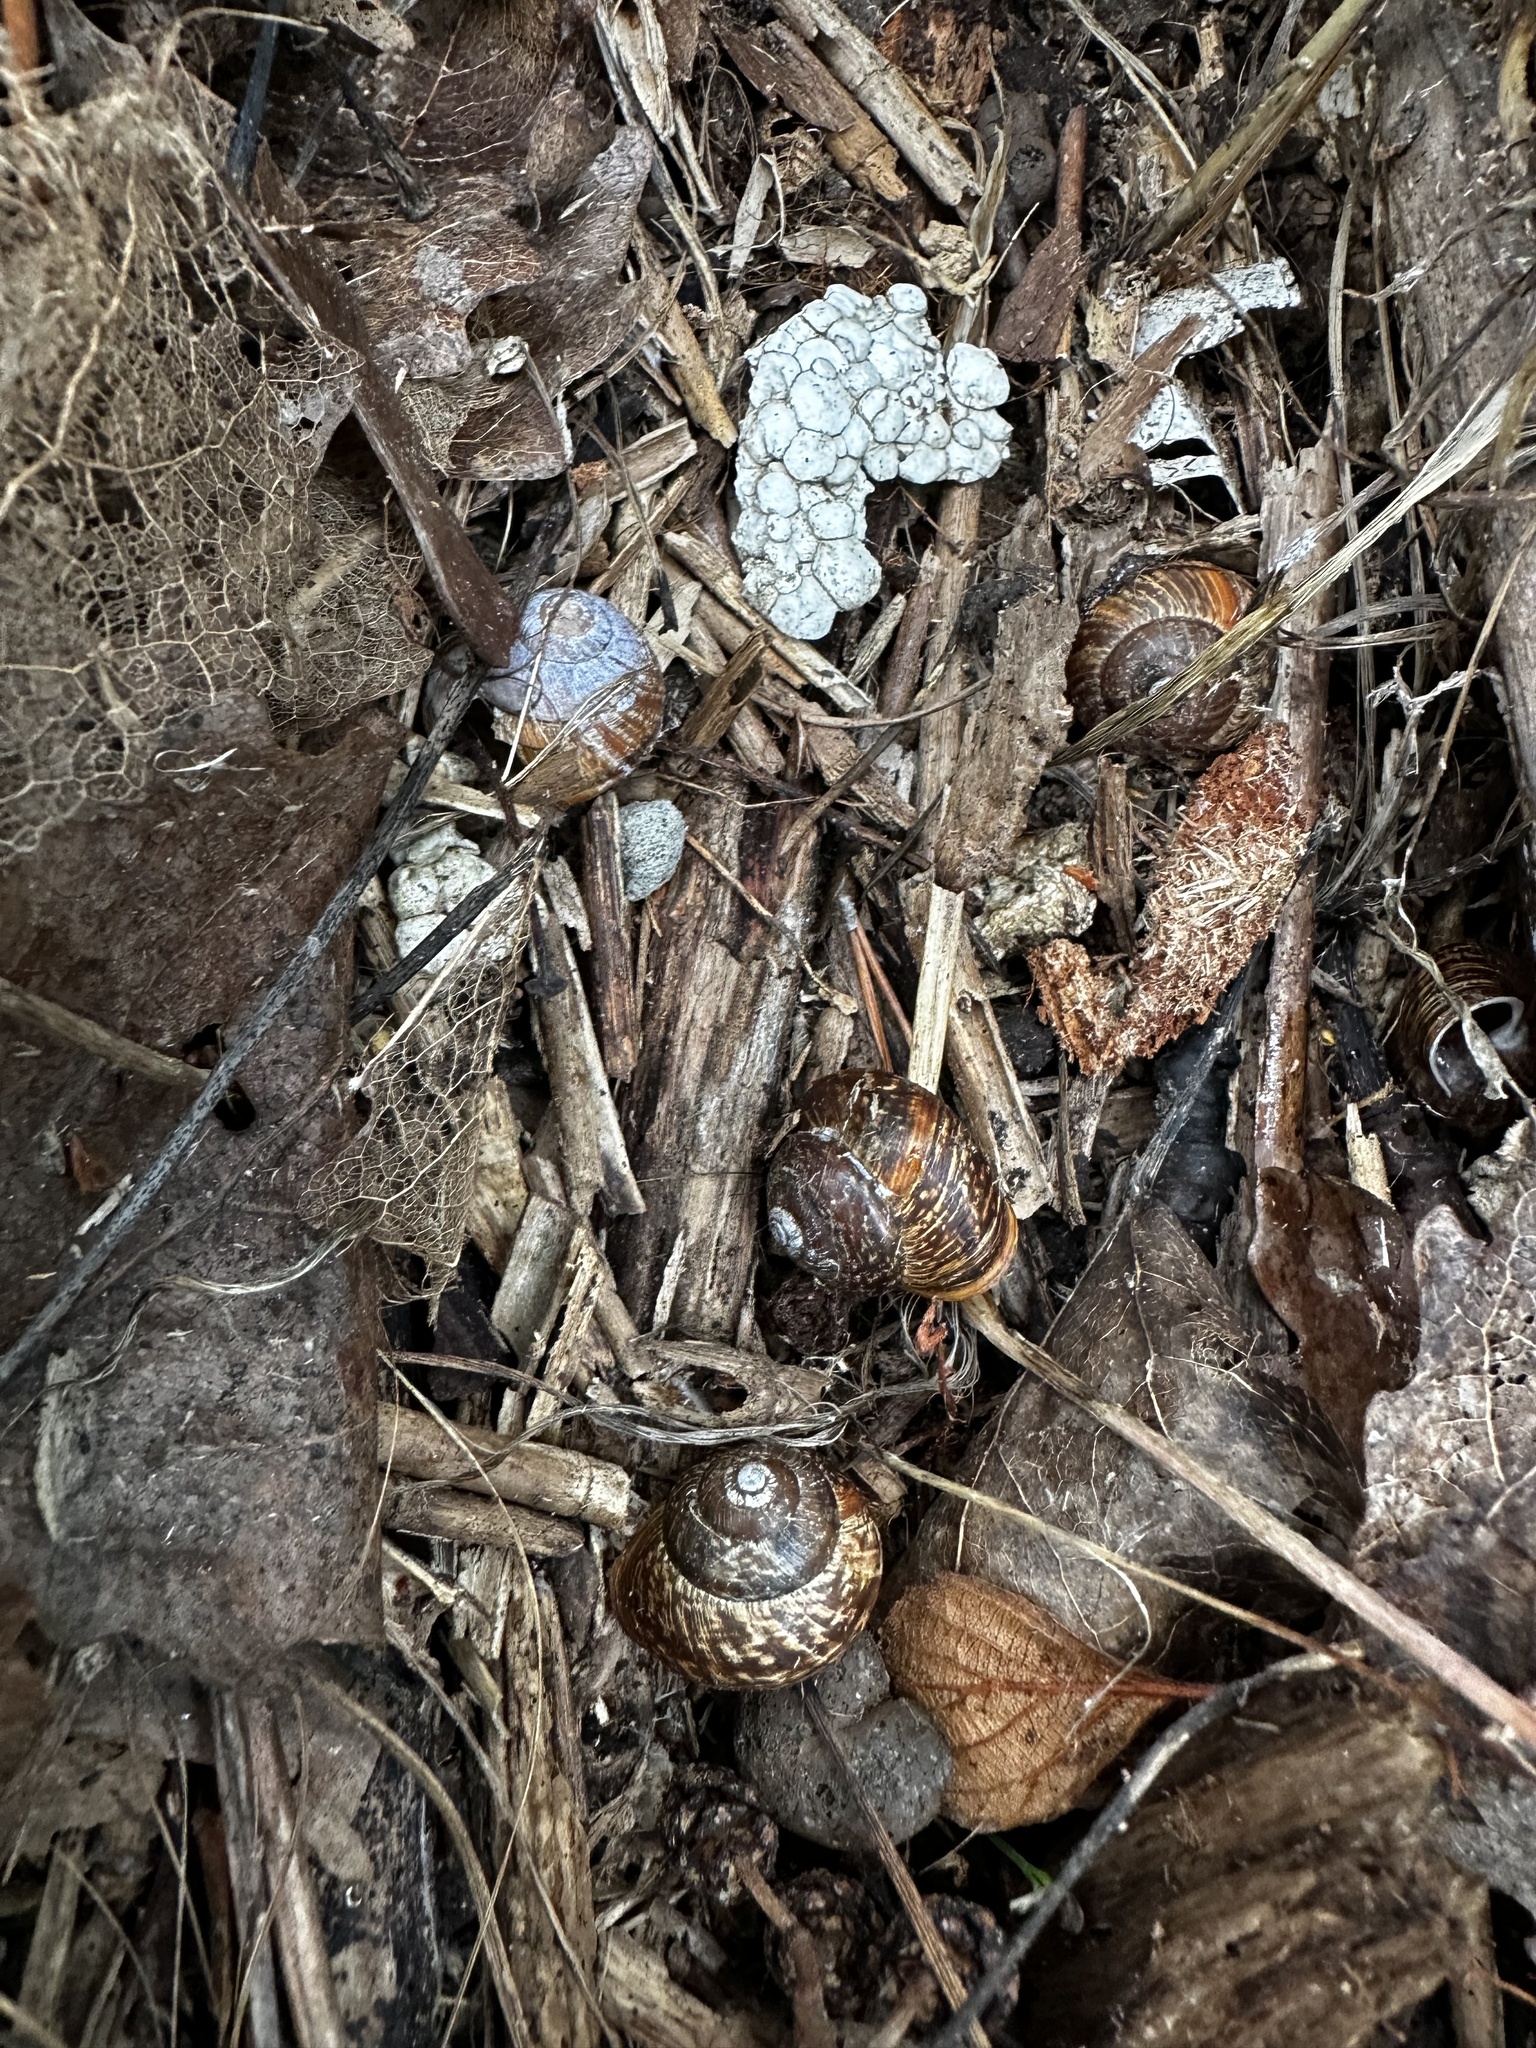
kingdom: Animalia
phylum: Mollusca
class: Gastropoda
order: Stylommatophora
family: Helicidae
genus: Arianta
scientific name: Arianta arbustorum
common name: Copse snail
